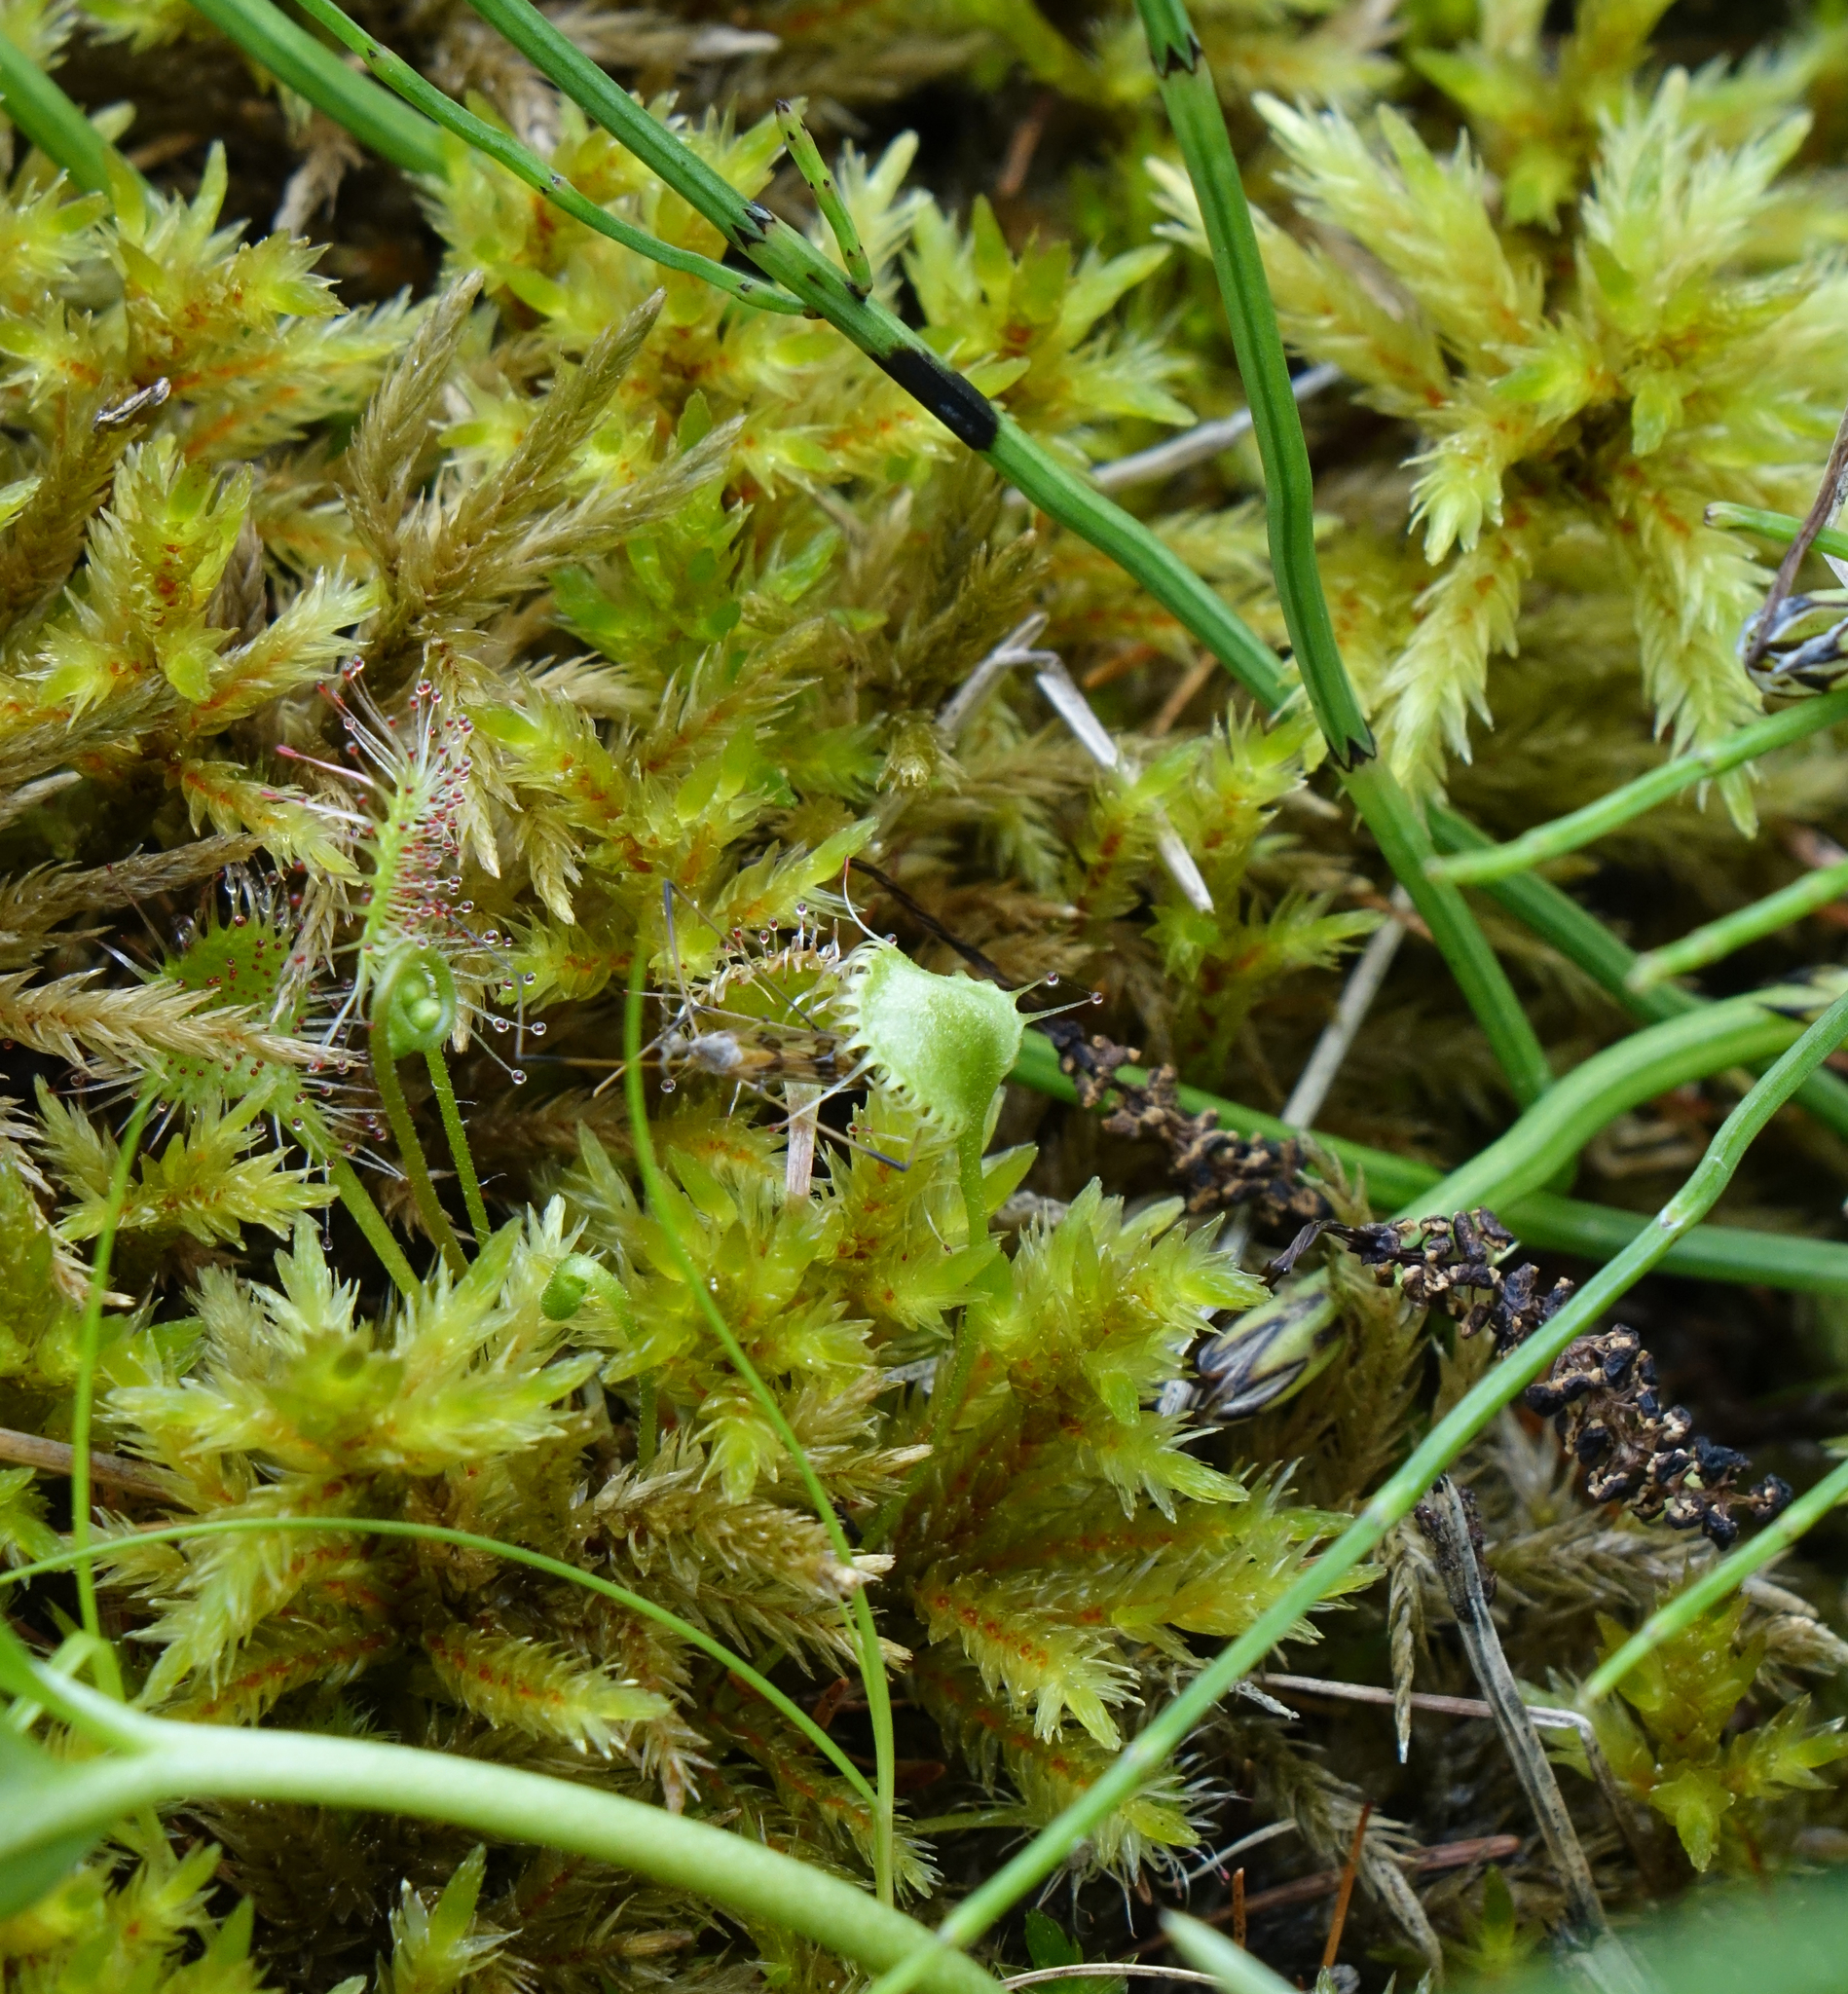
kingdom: Plantae
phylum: Tracheophyta
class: Magnoliopsida
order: Caryophyllales
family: Droseraceae
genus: Drosera
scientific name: Drosera rotundifolia
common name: Round-leaved sundew
